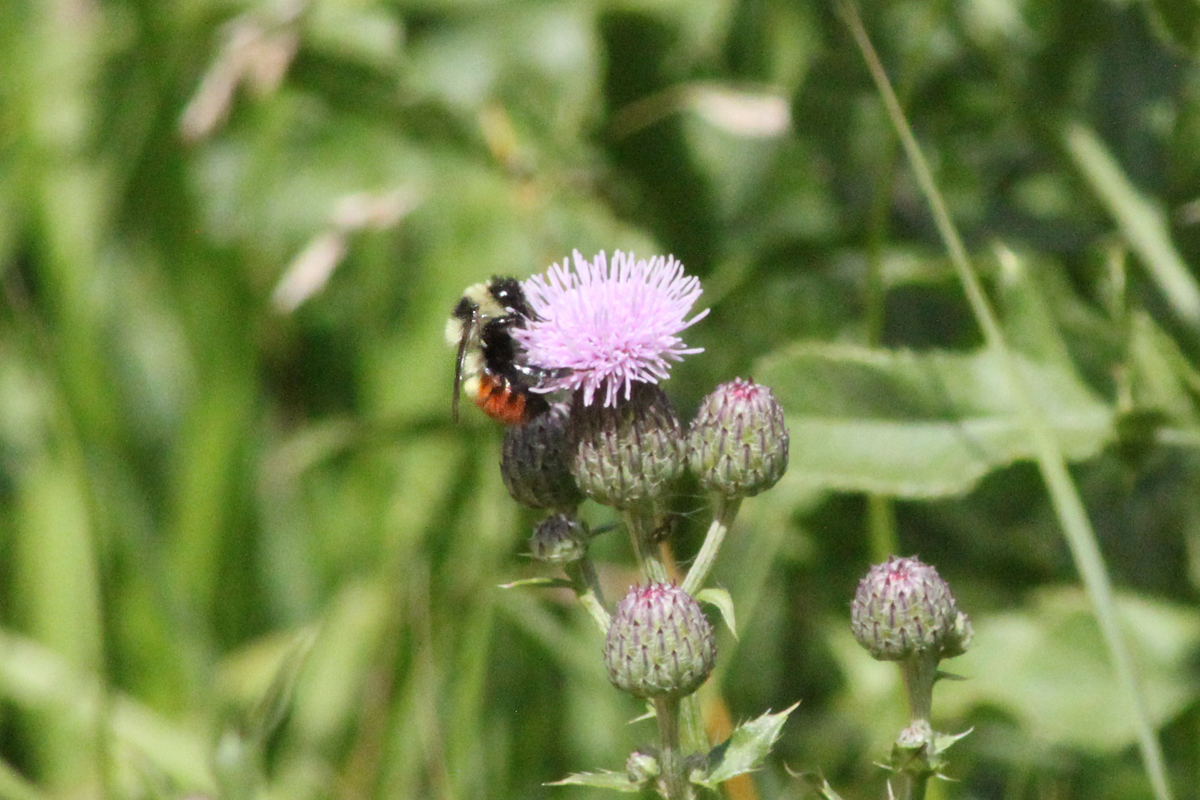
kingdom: Animalia
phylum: Arthropoda
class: Insecta
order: Hymenoptera
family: Apidae
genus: Bombus
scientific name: Bombus rufocinctus
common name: Red-belted bumble bee
